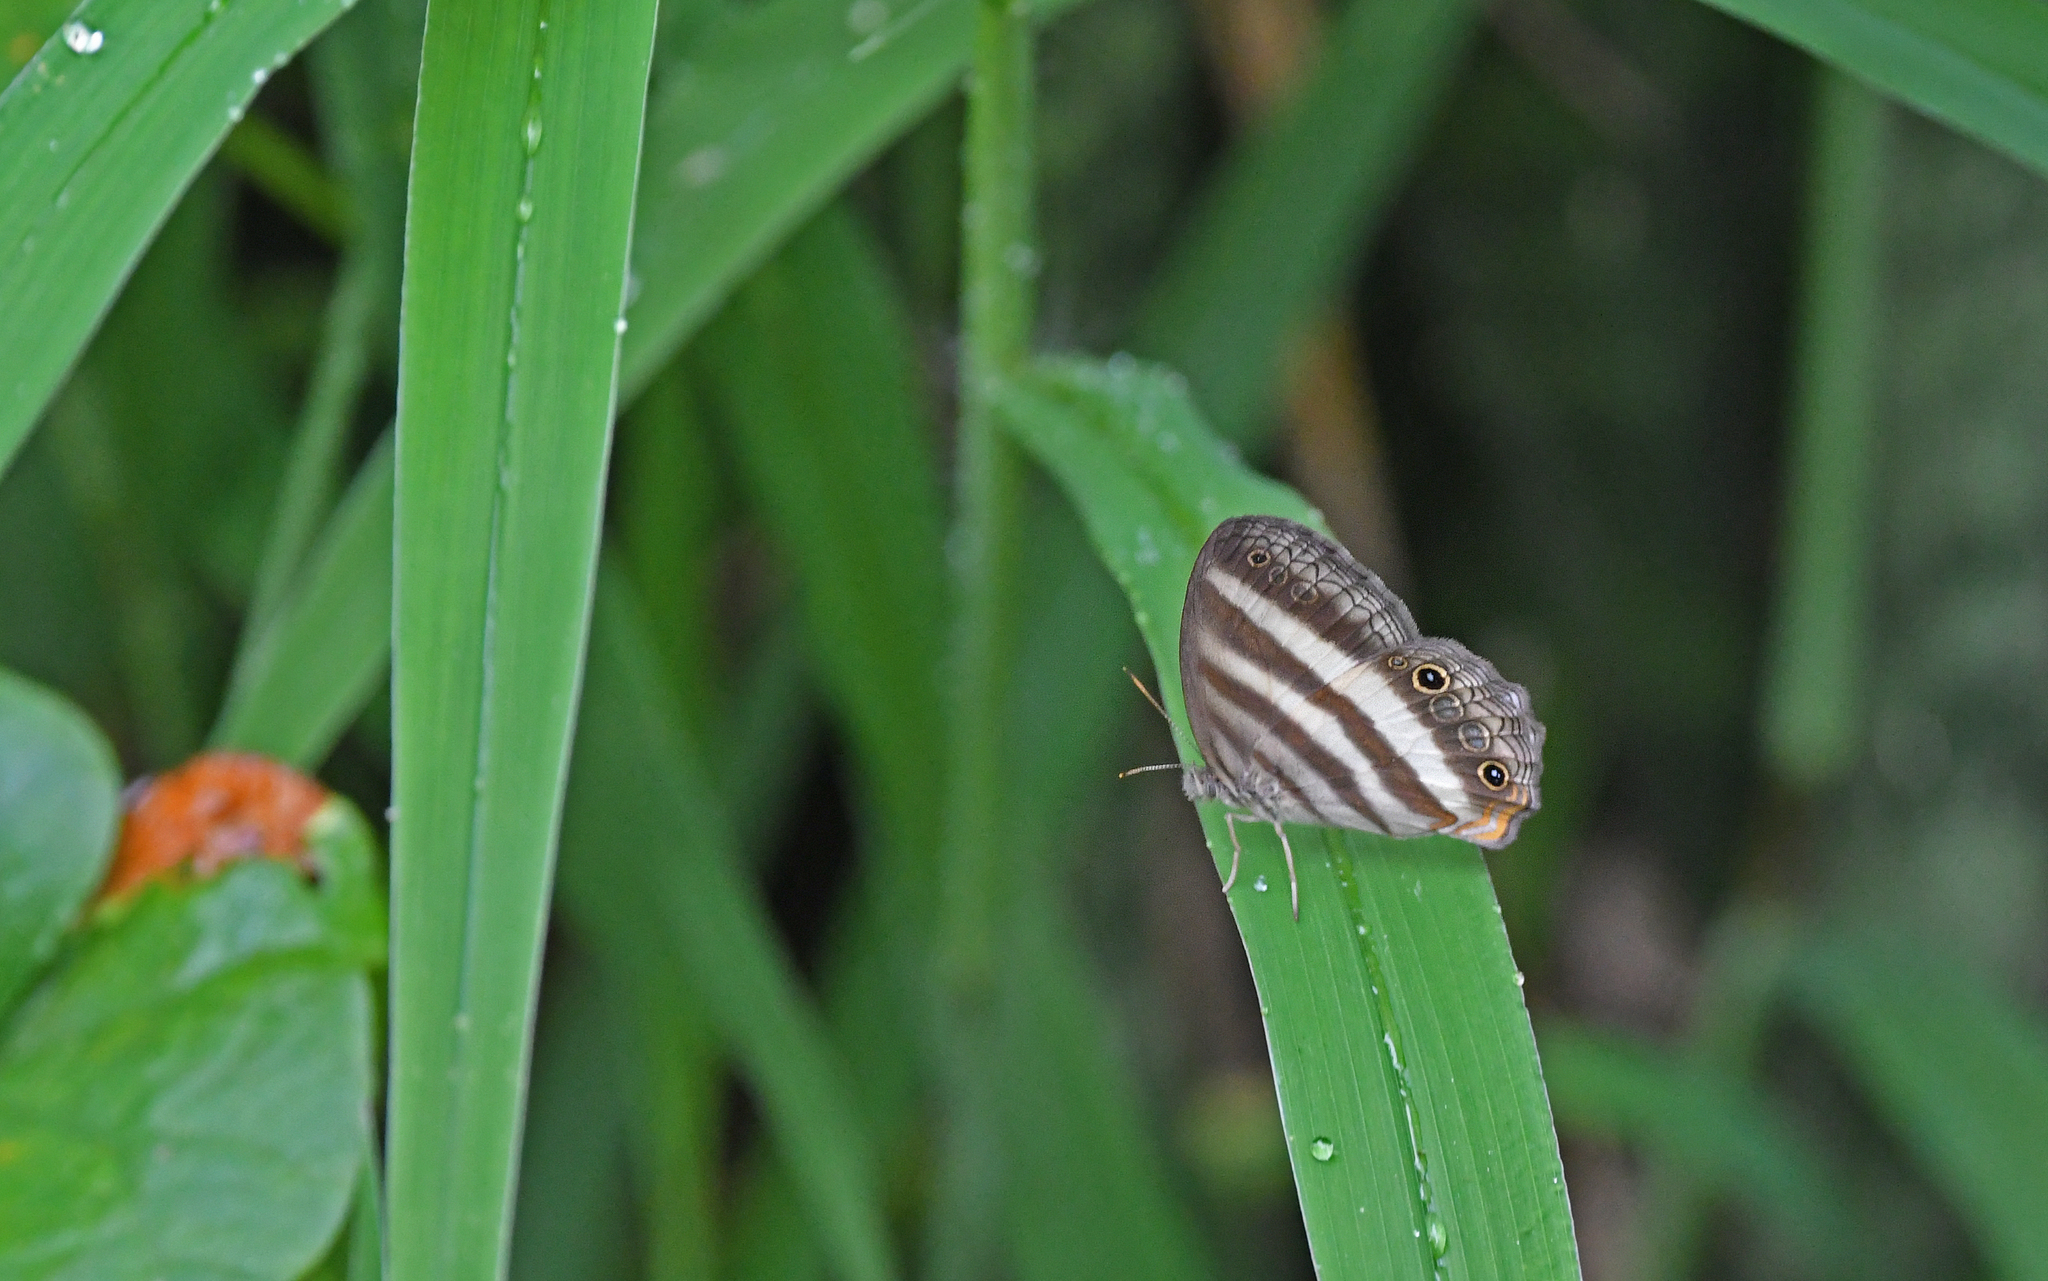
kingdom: Animalia
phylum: Arthropoda
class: Insecta
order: Lepidoptera
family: Nymphalidae
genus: Pareuptychia
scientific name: Pareuptychia hesione
